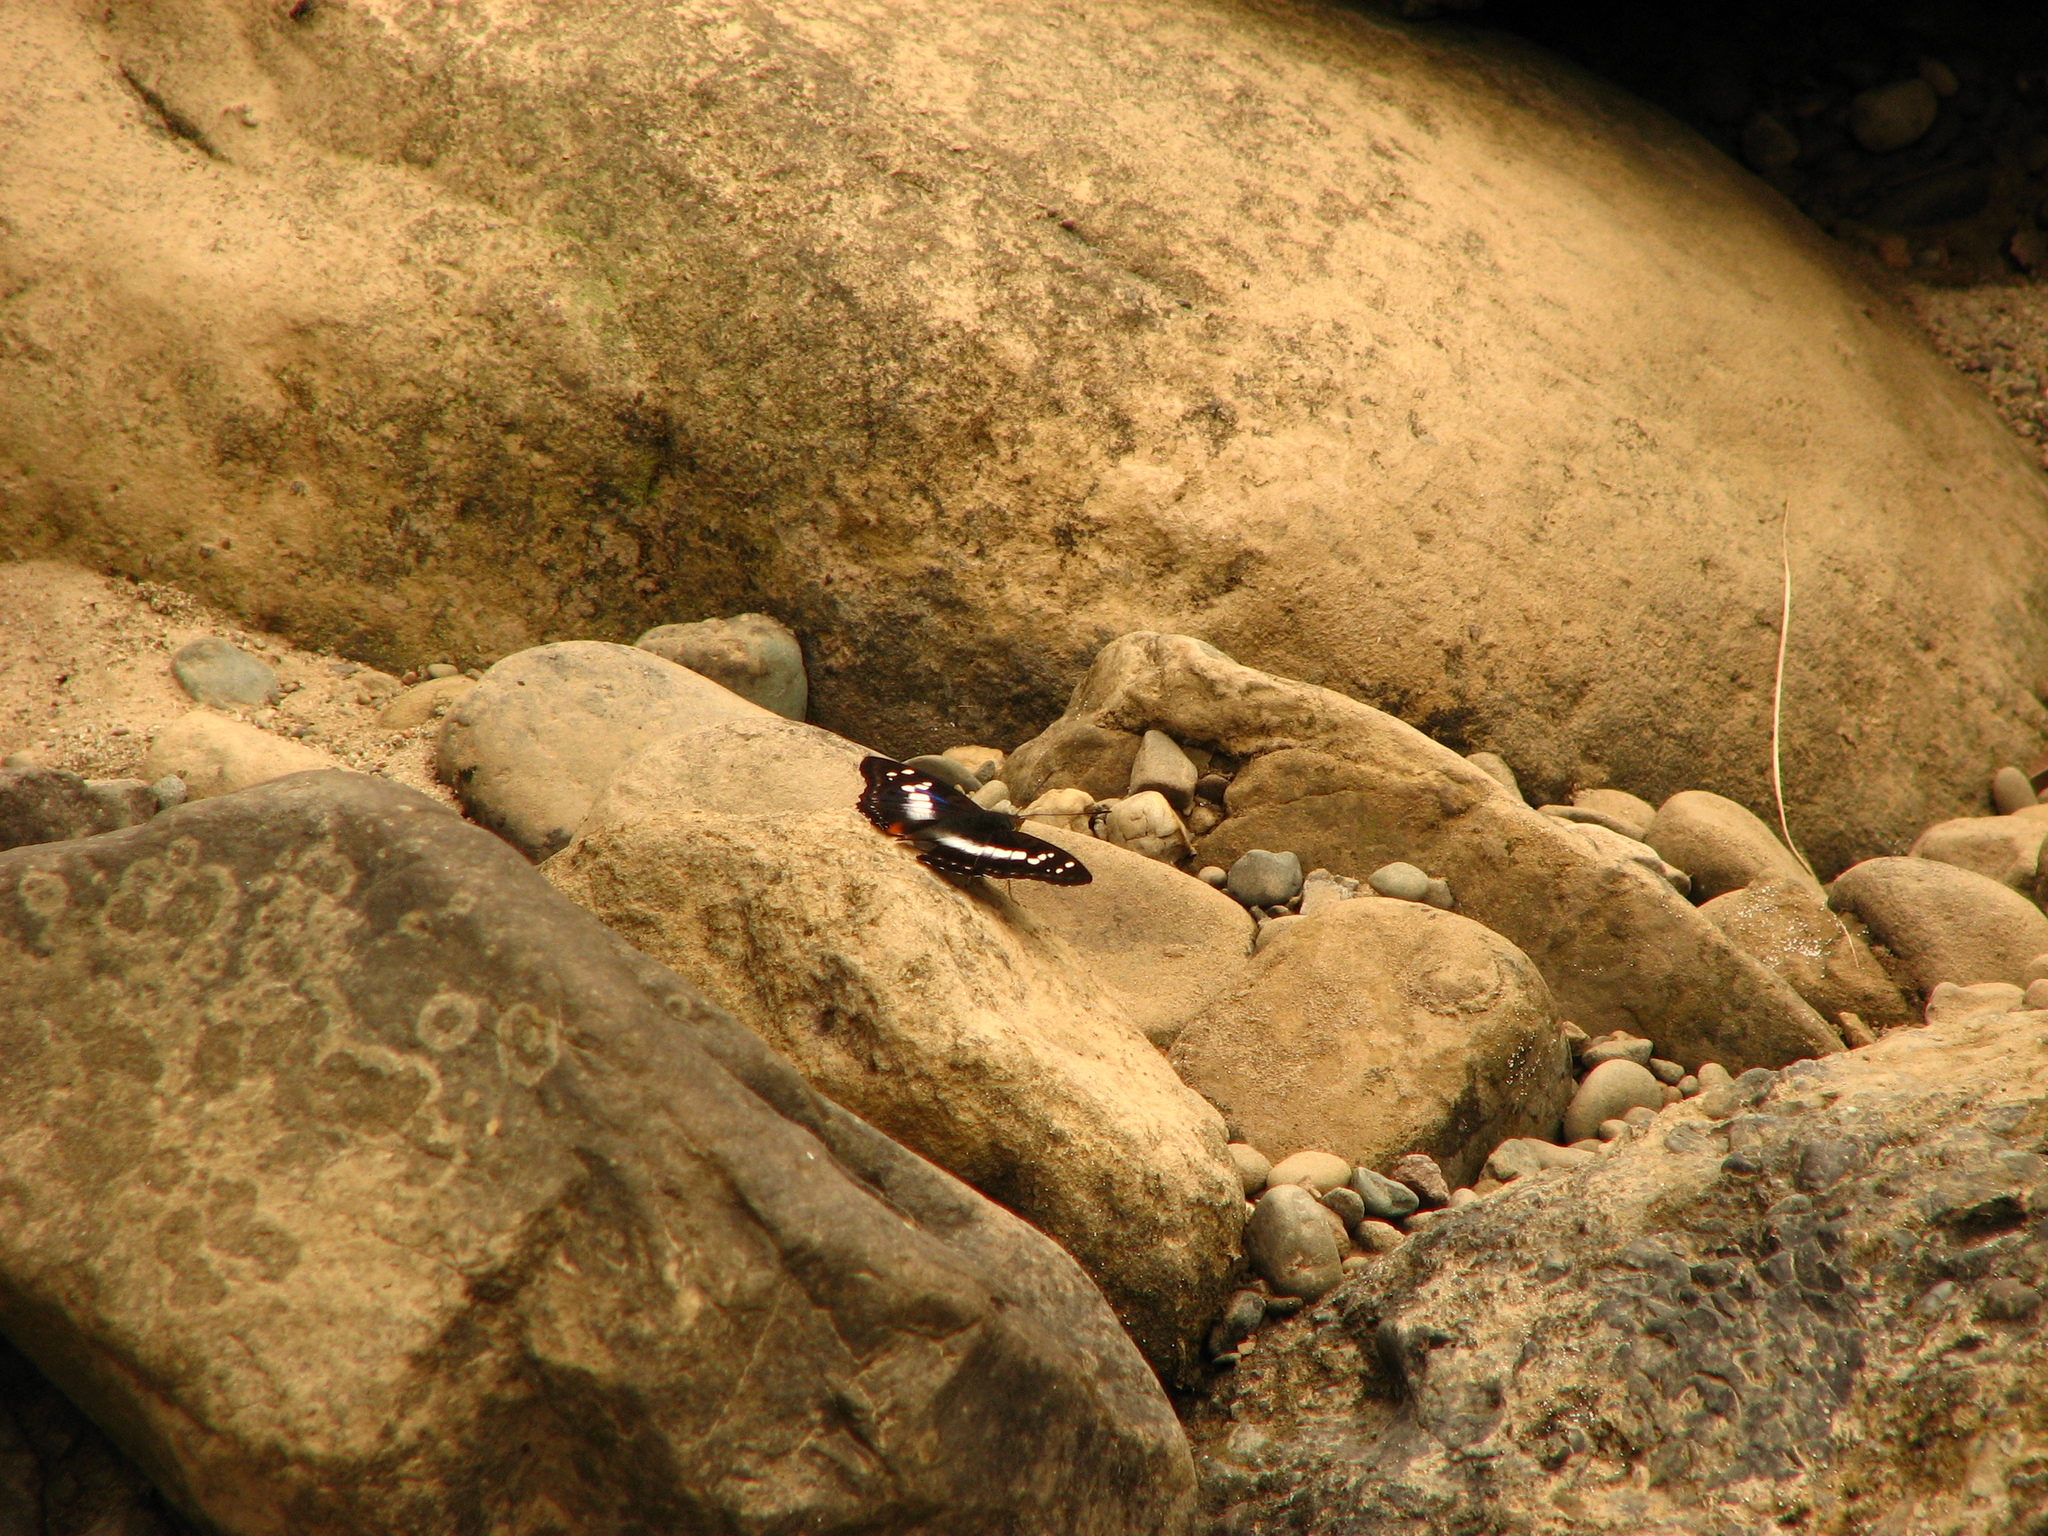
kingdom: Animalia
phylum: Arthropoda
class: Insecta
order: Lepidoptera
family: Nymphalidae
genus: Apatura
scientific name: Apatura Mimathyma ambica
